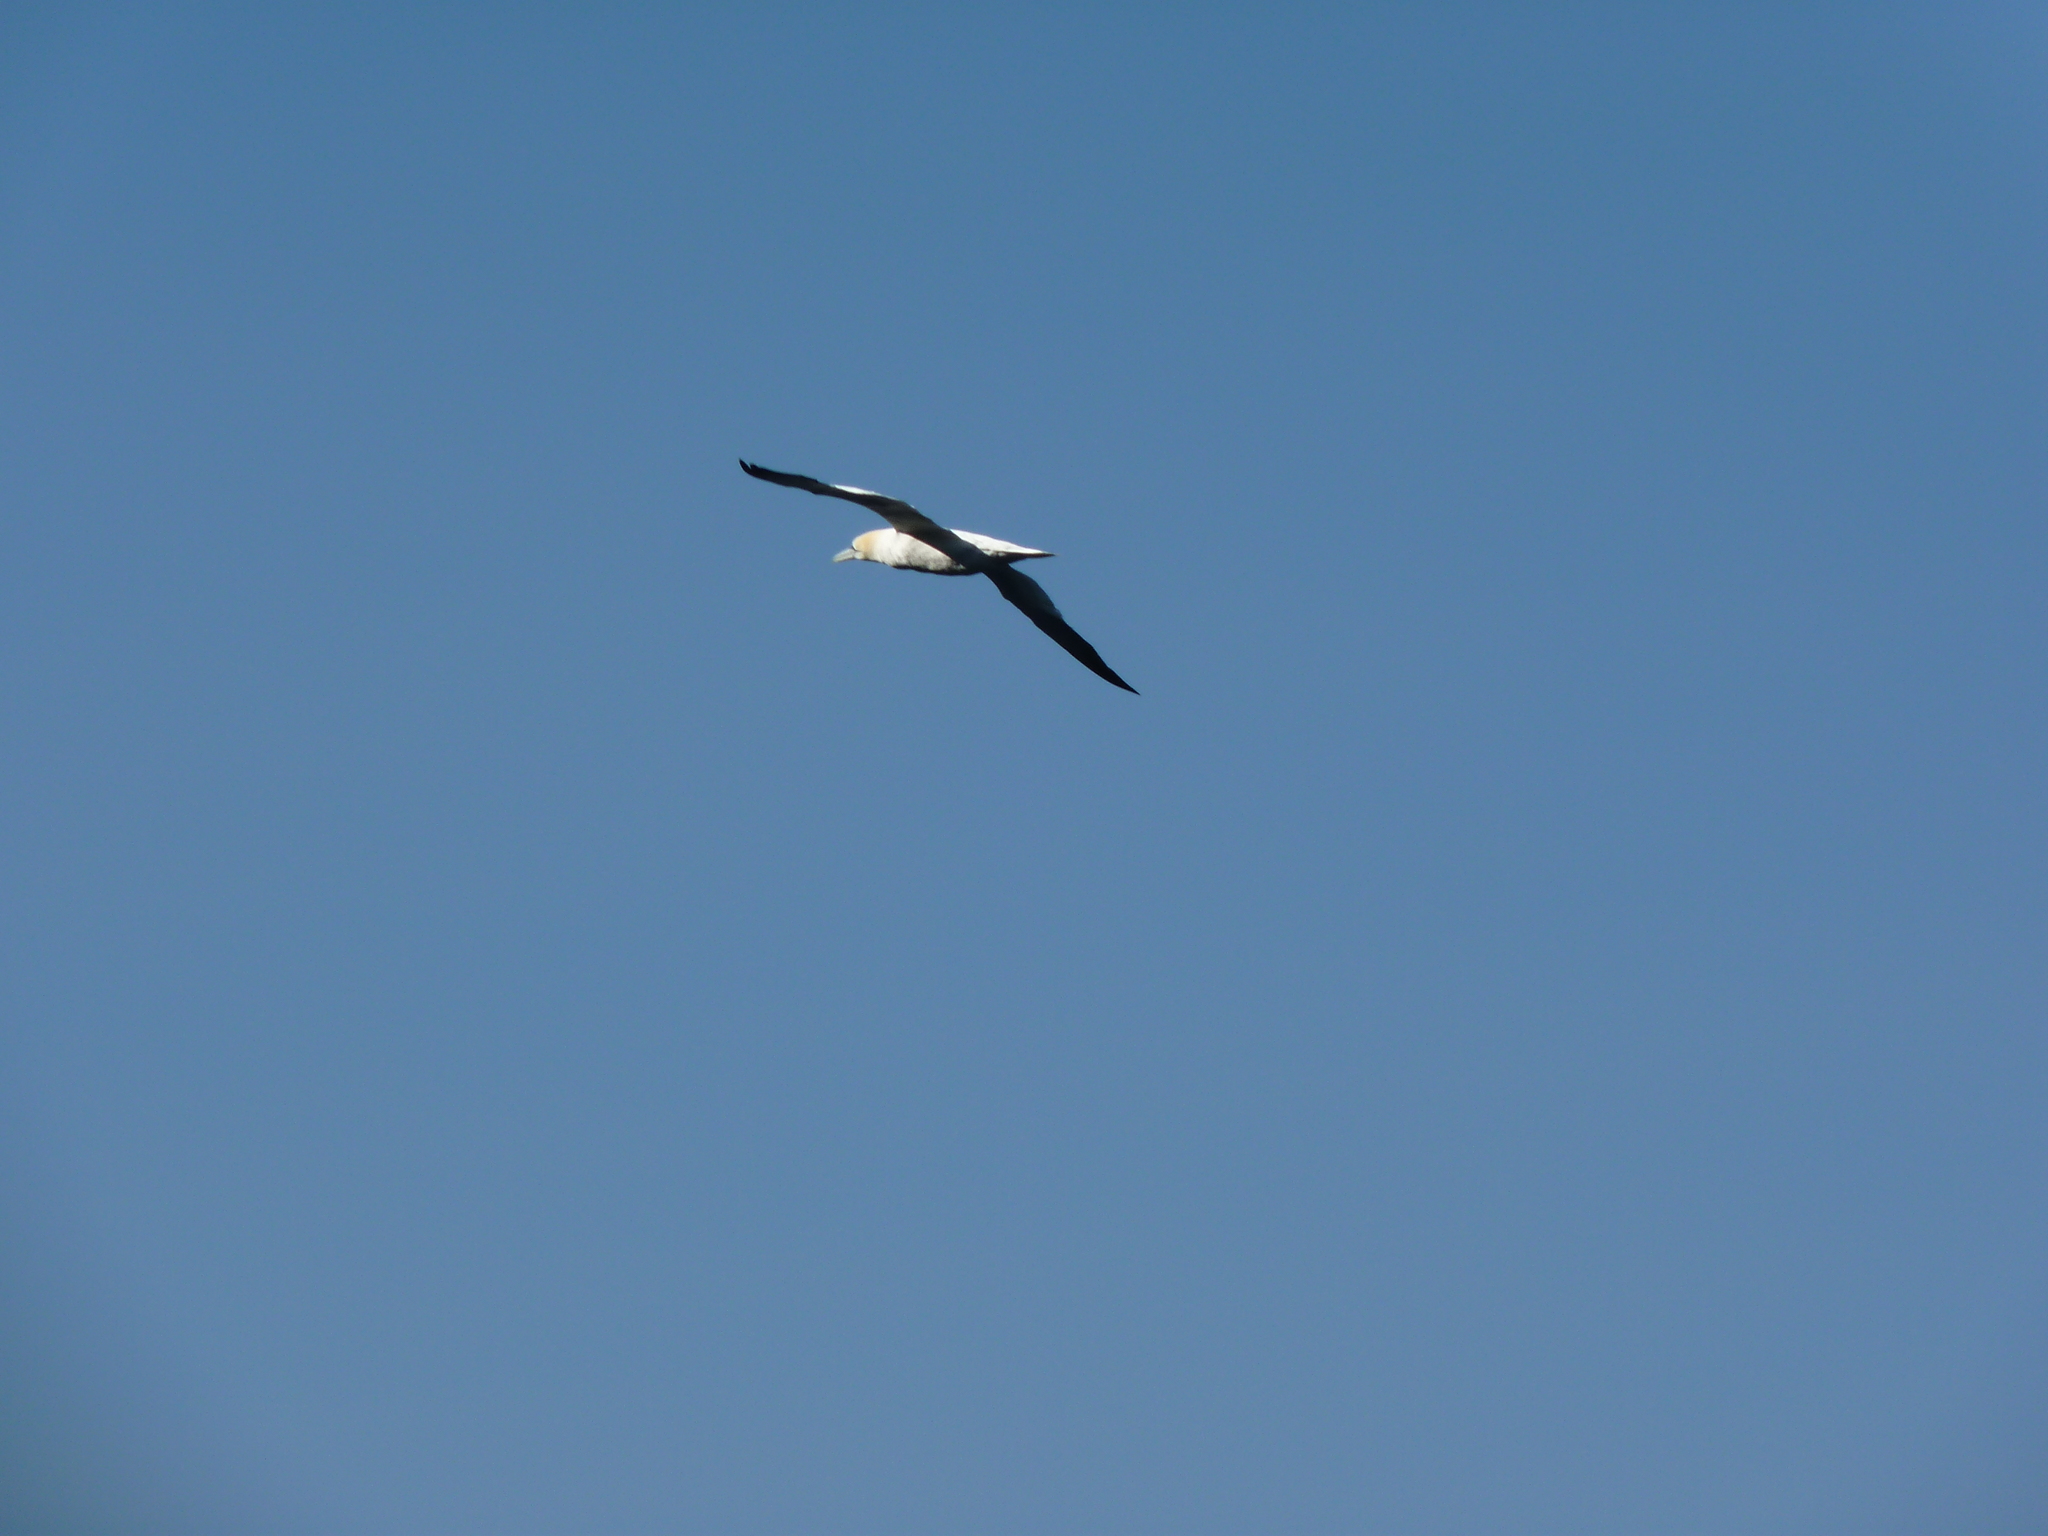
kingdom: Animalia
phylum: Chordata
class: Aves
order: Suliformes
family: Sulidae
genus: Morus
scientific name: Morus bassanus
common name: Northern gannet
